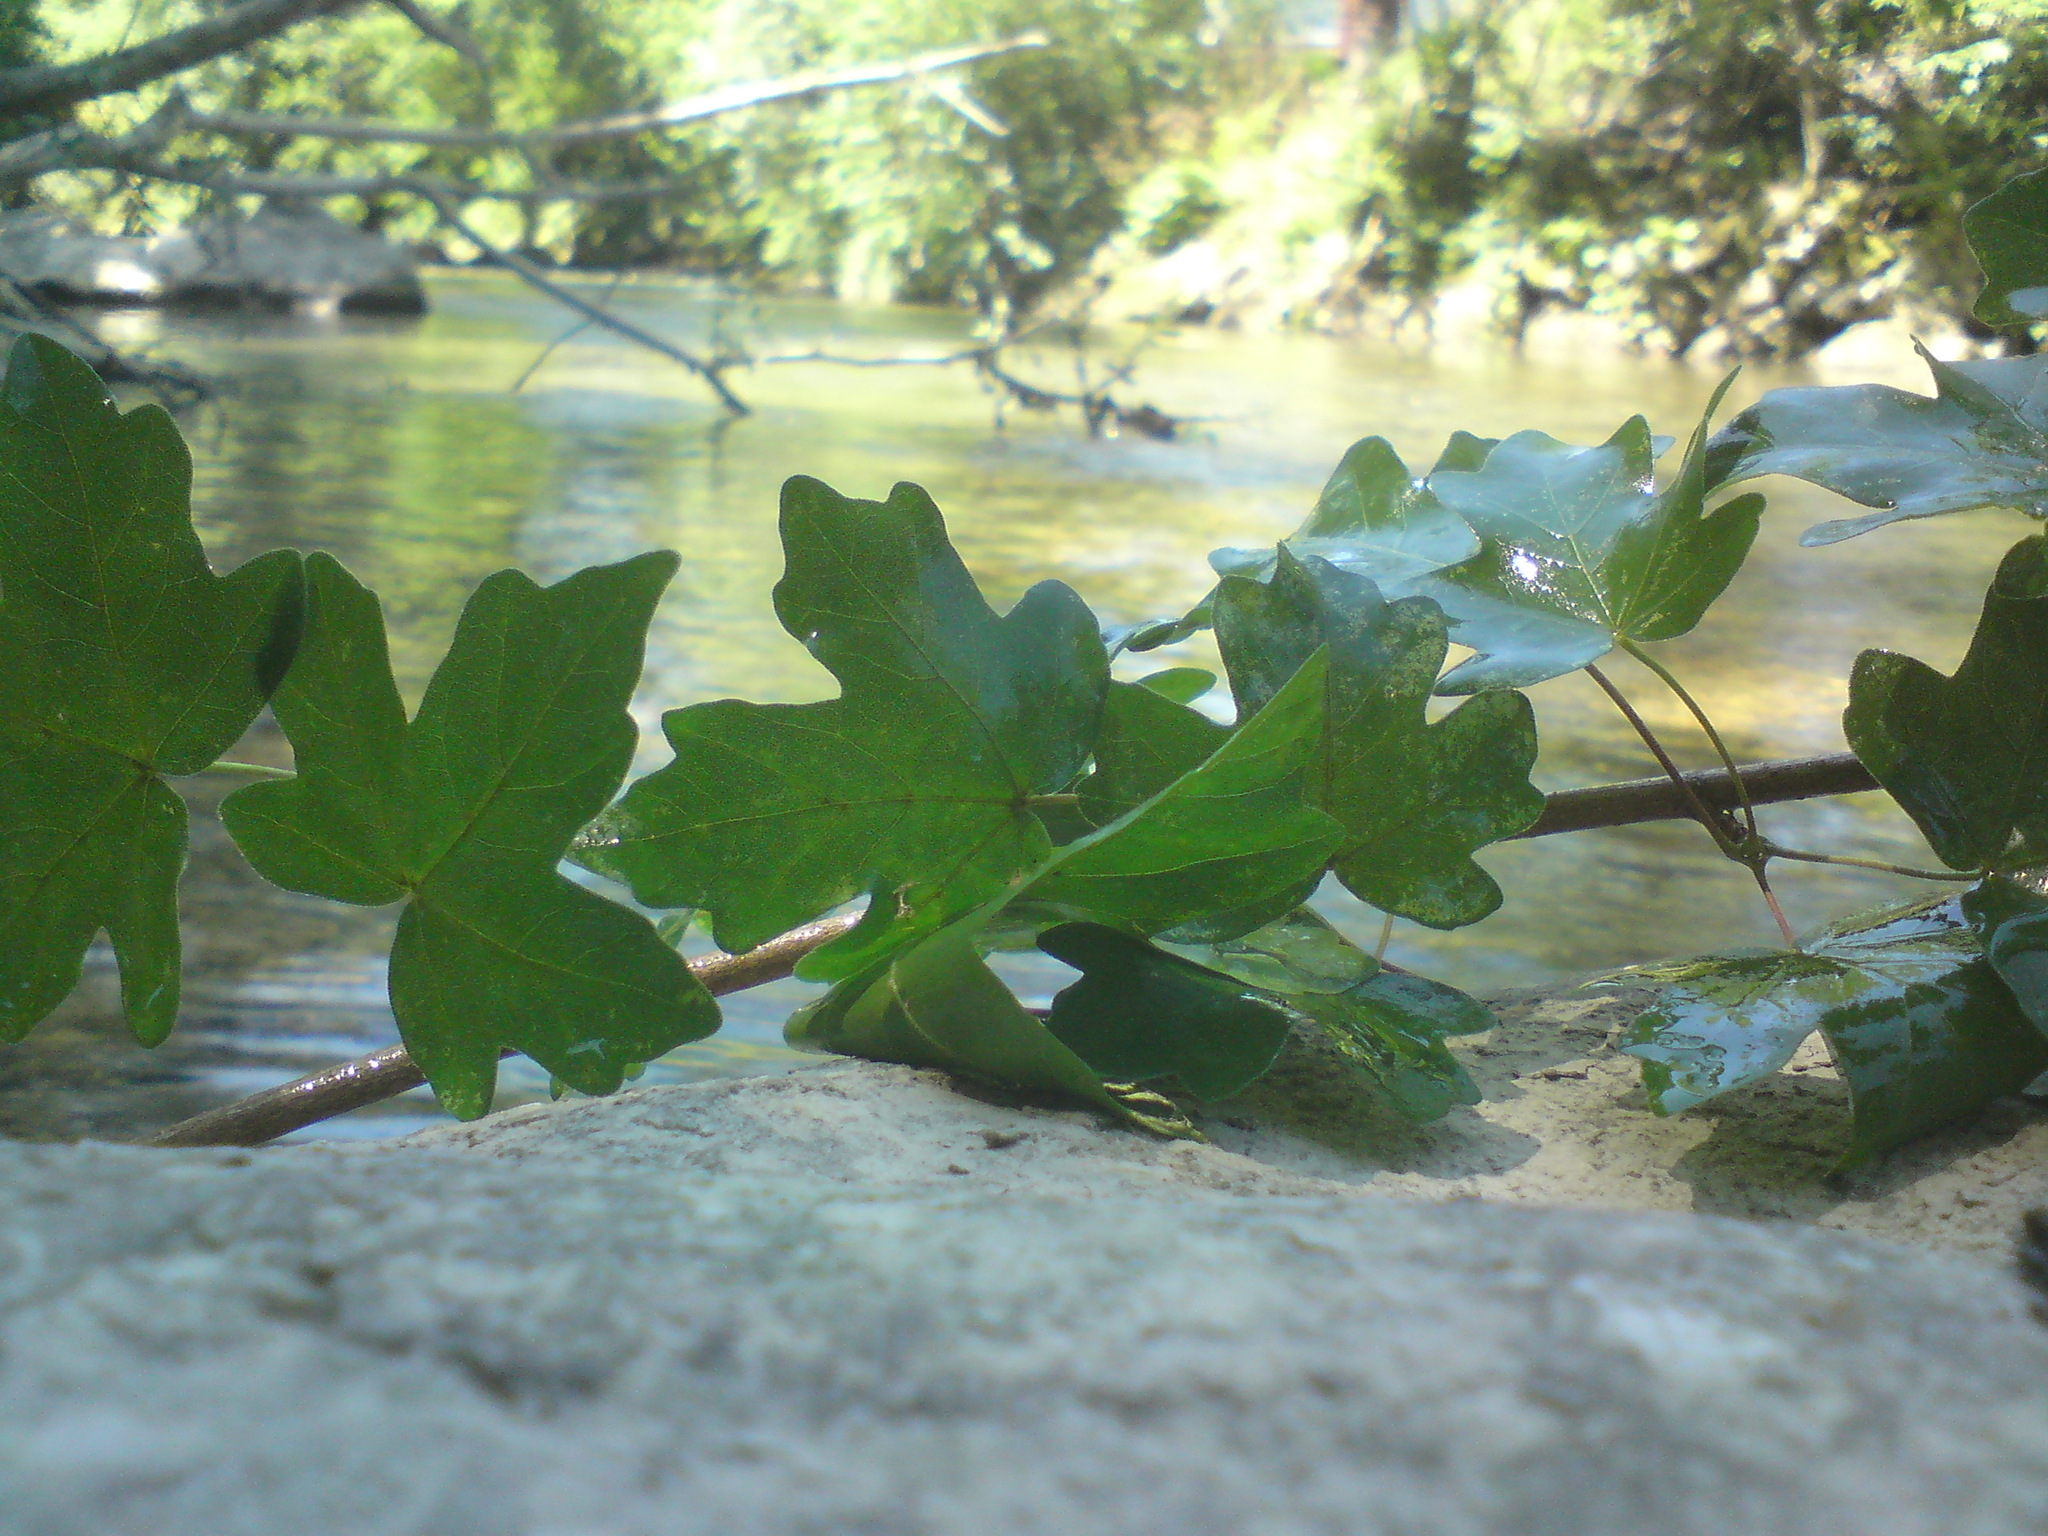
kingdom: Plantae
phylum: Tracheophyta
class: Magnoliopsida
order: Sapindales
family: Sapindaceae
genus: Acer
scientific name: Acer campestre
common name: Field maple
